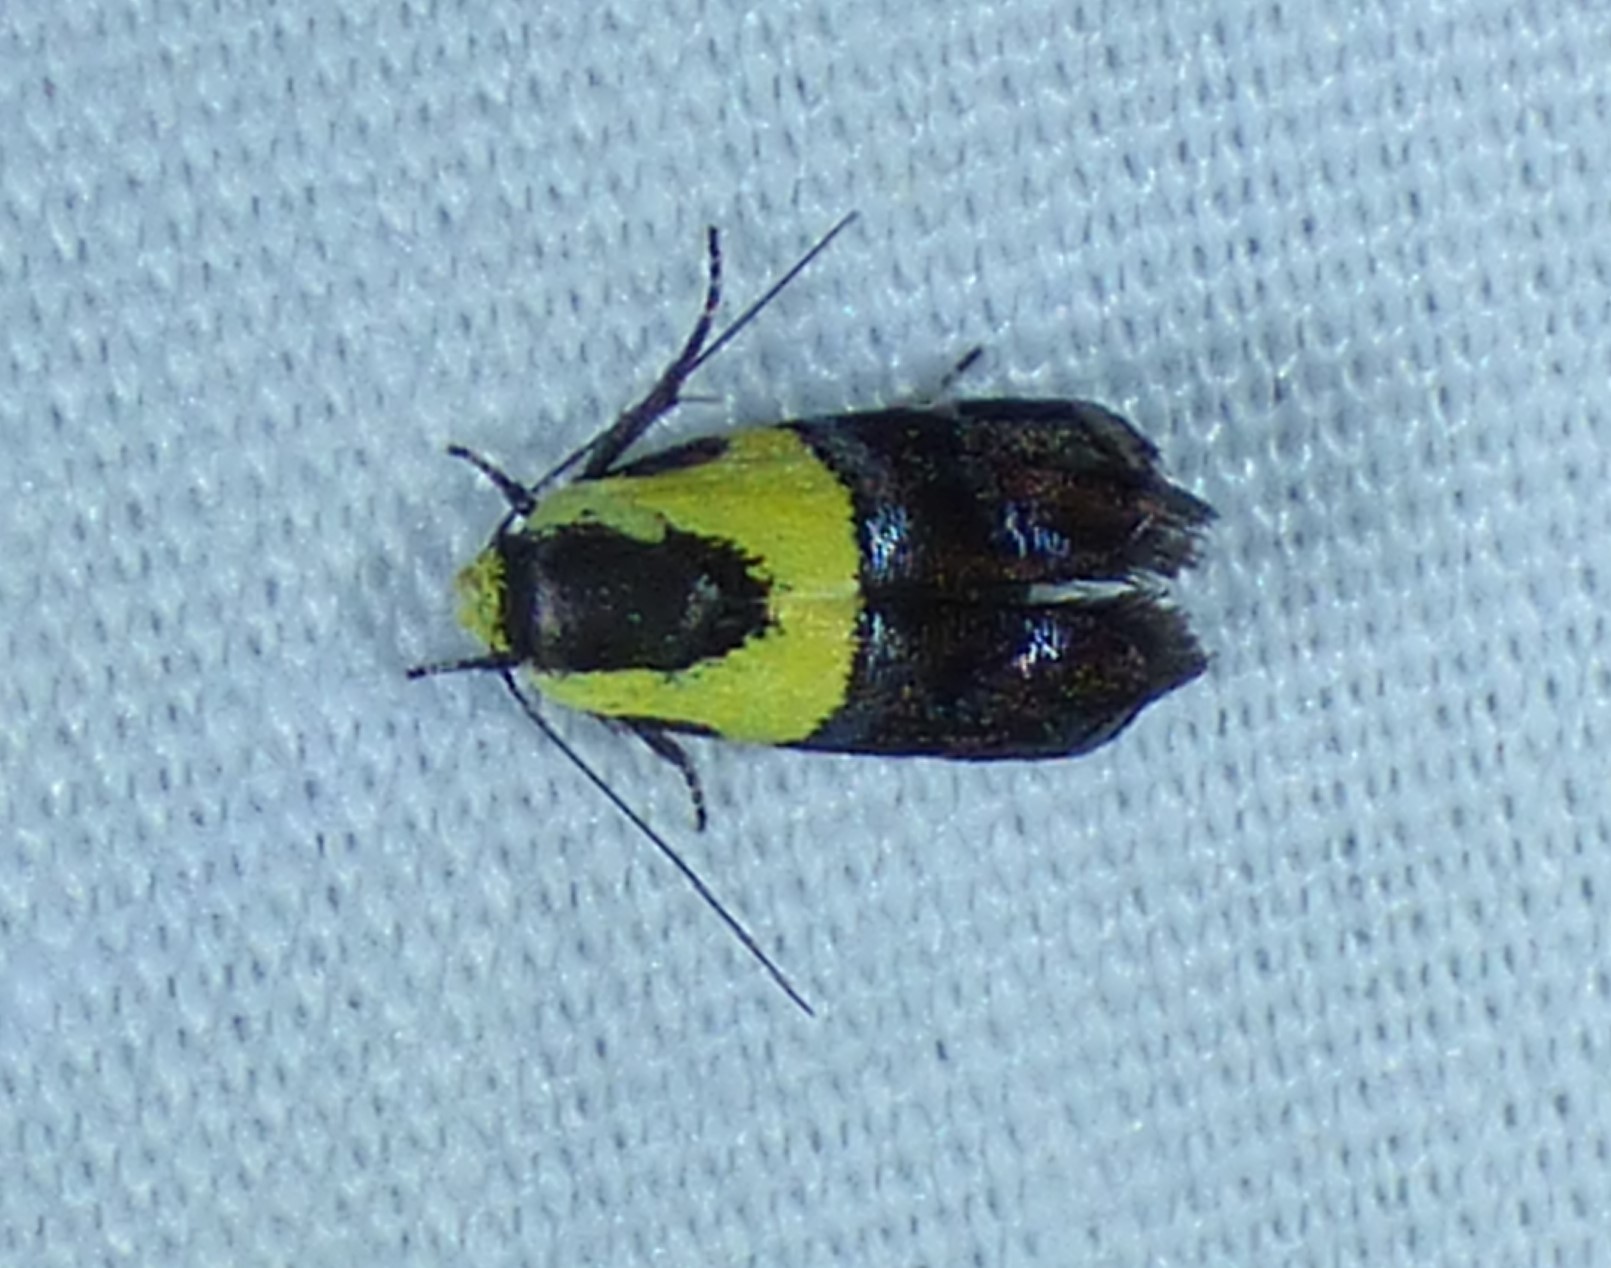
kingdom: Animalia
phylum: Arthropoda
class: Insecta
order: Lepidoptera
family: Depressariidae
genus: Rectiostoma
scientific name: Rectiostoma xanthobasis
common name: Yellow-vested moth
